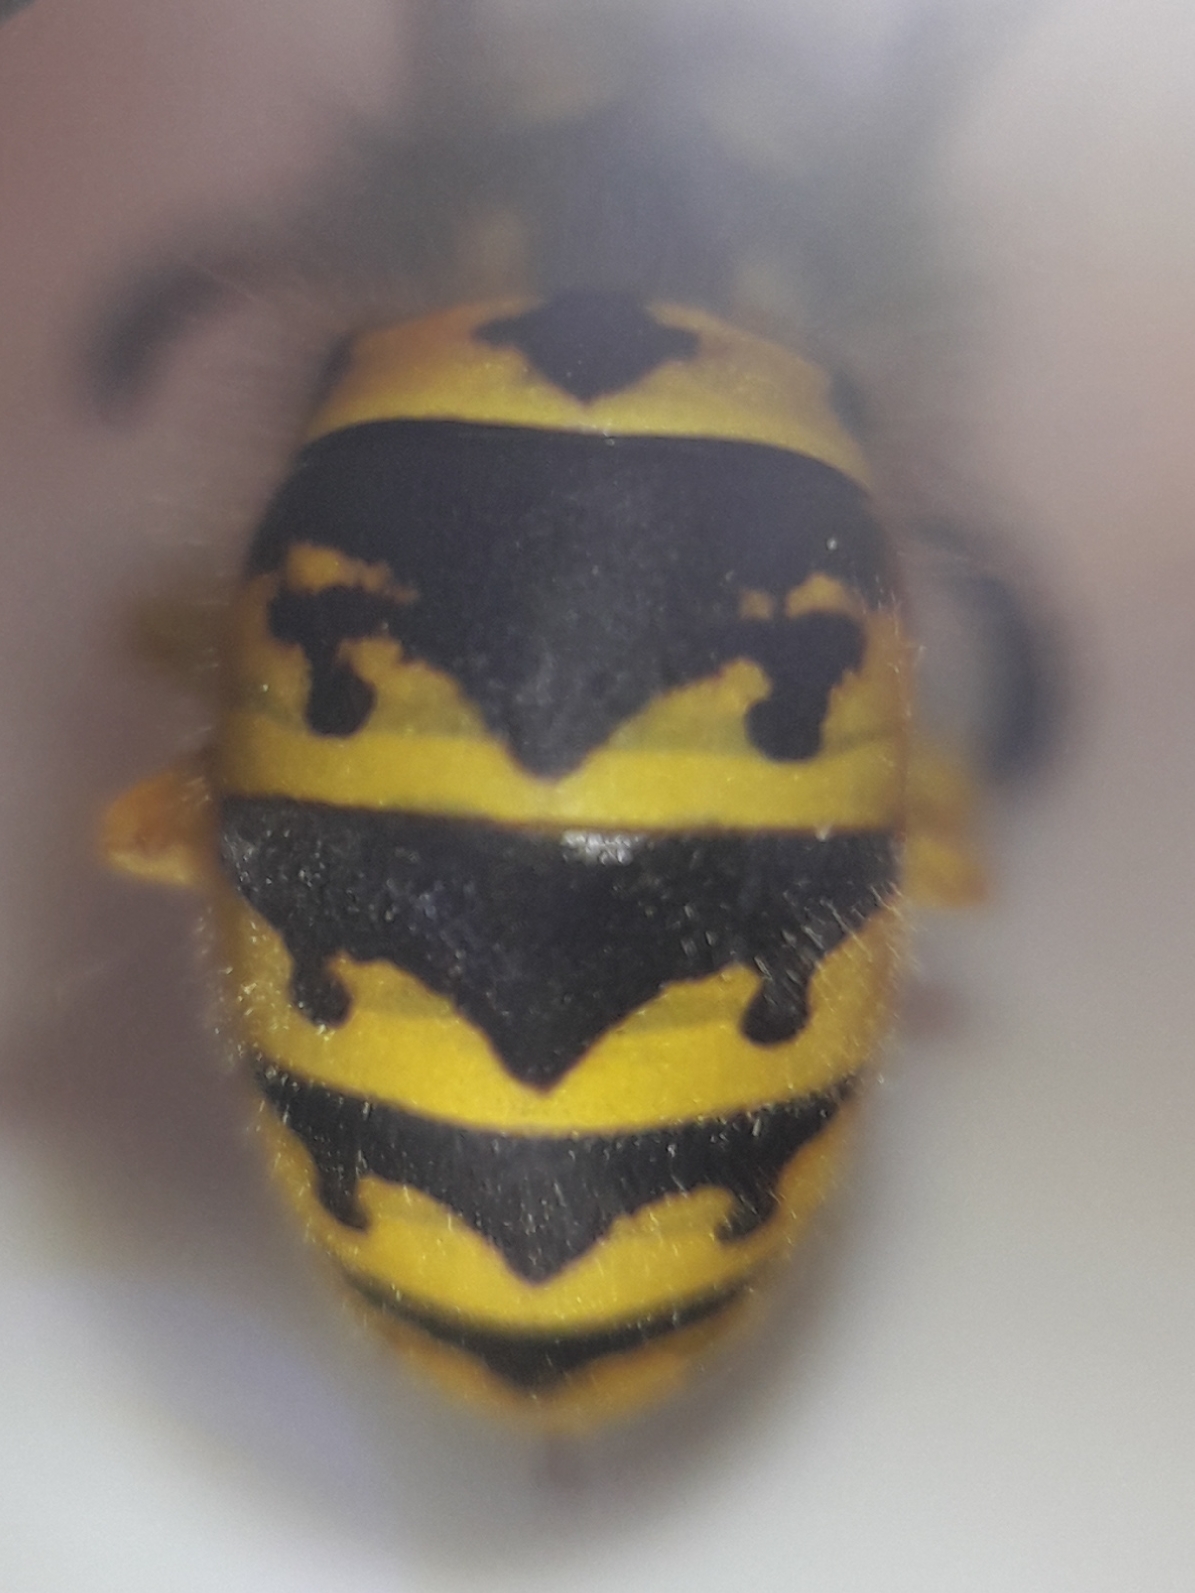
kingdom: Animalia
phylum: Arthropoda
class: Insecta
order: Hymenoptera
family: Vespidae
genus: Vespula
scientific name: Vespula germanica
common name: German wasp
